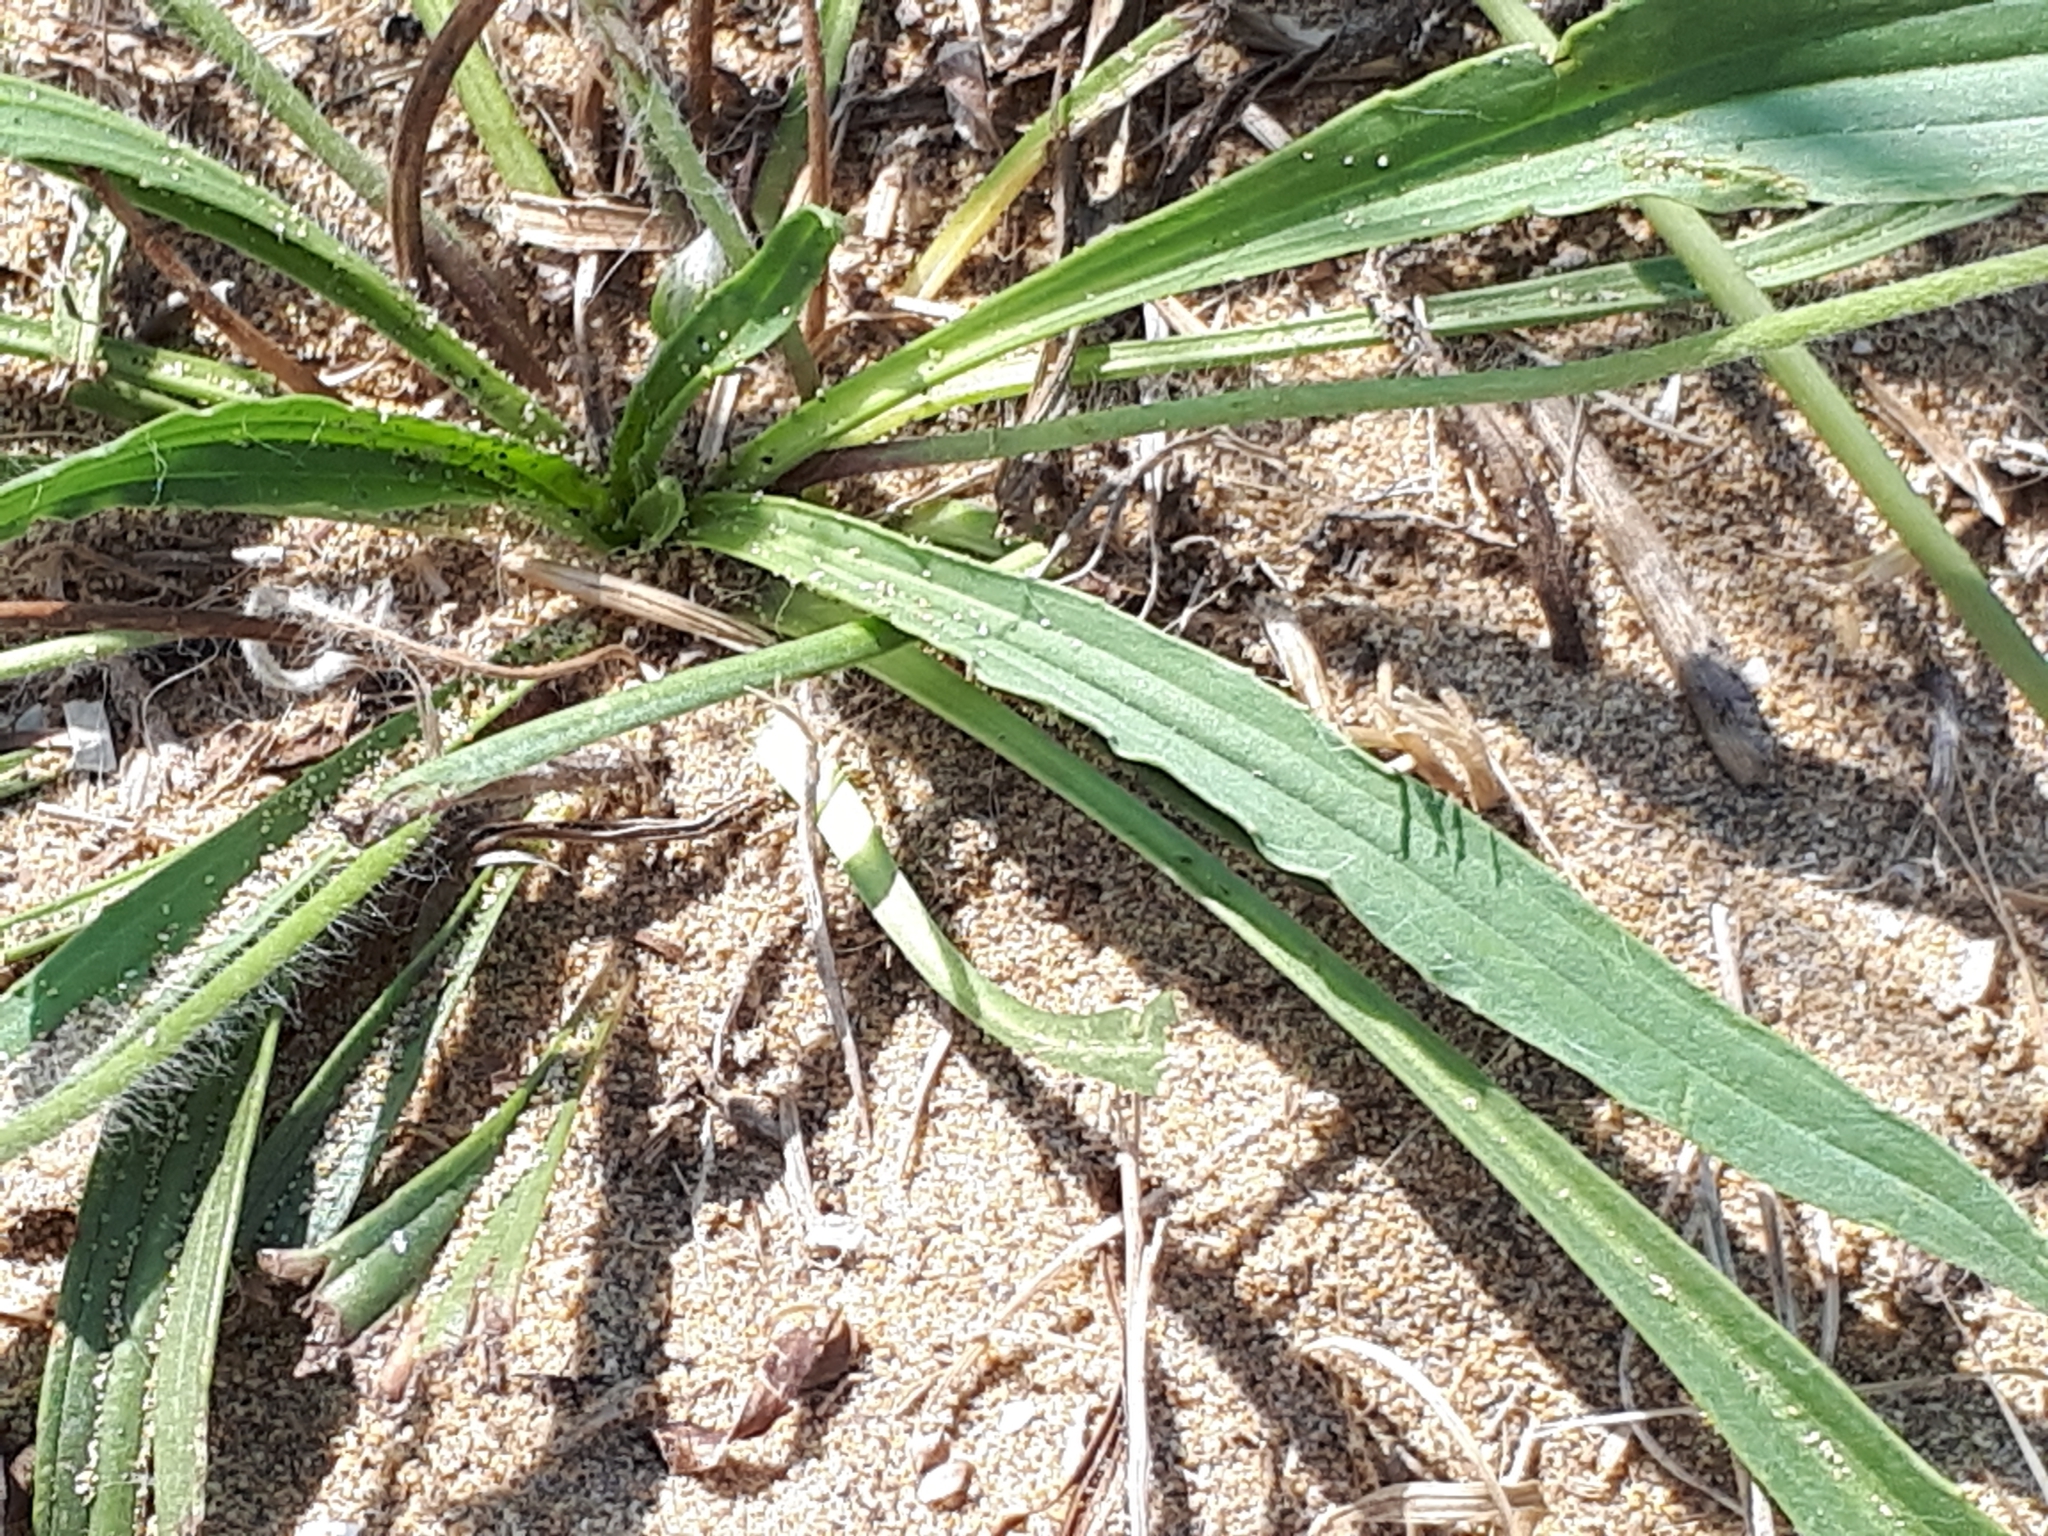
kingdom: Plantae
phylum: Tracheophyta
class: Magnoliopsida
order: Lamiales
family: Plantaginaceae
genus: Plantago
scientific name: Plantago lanceolata
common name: Ribwort plantain
